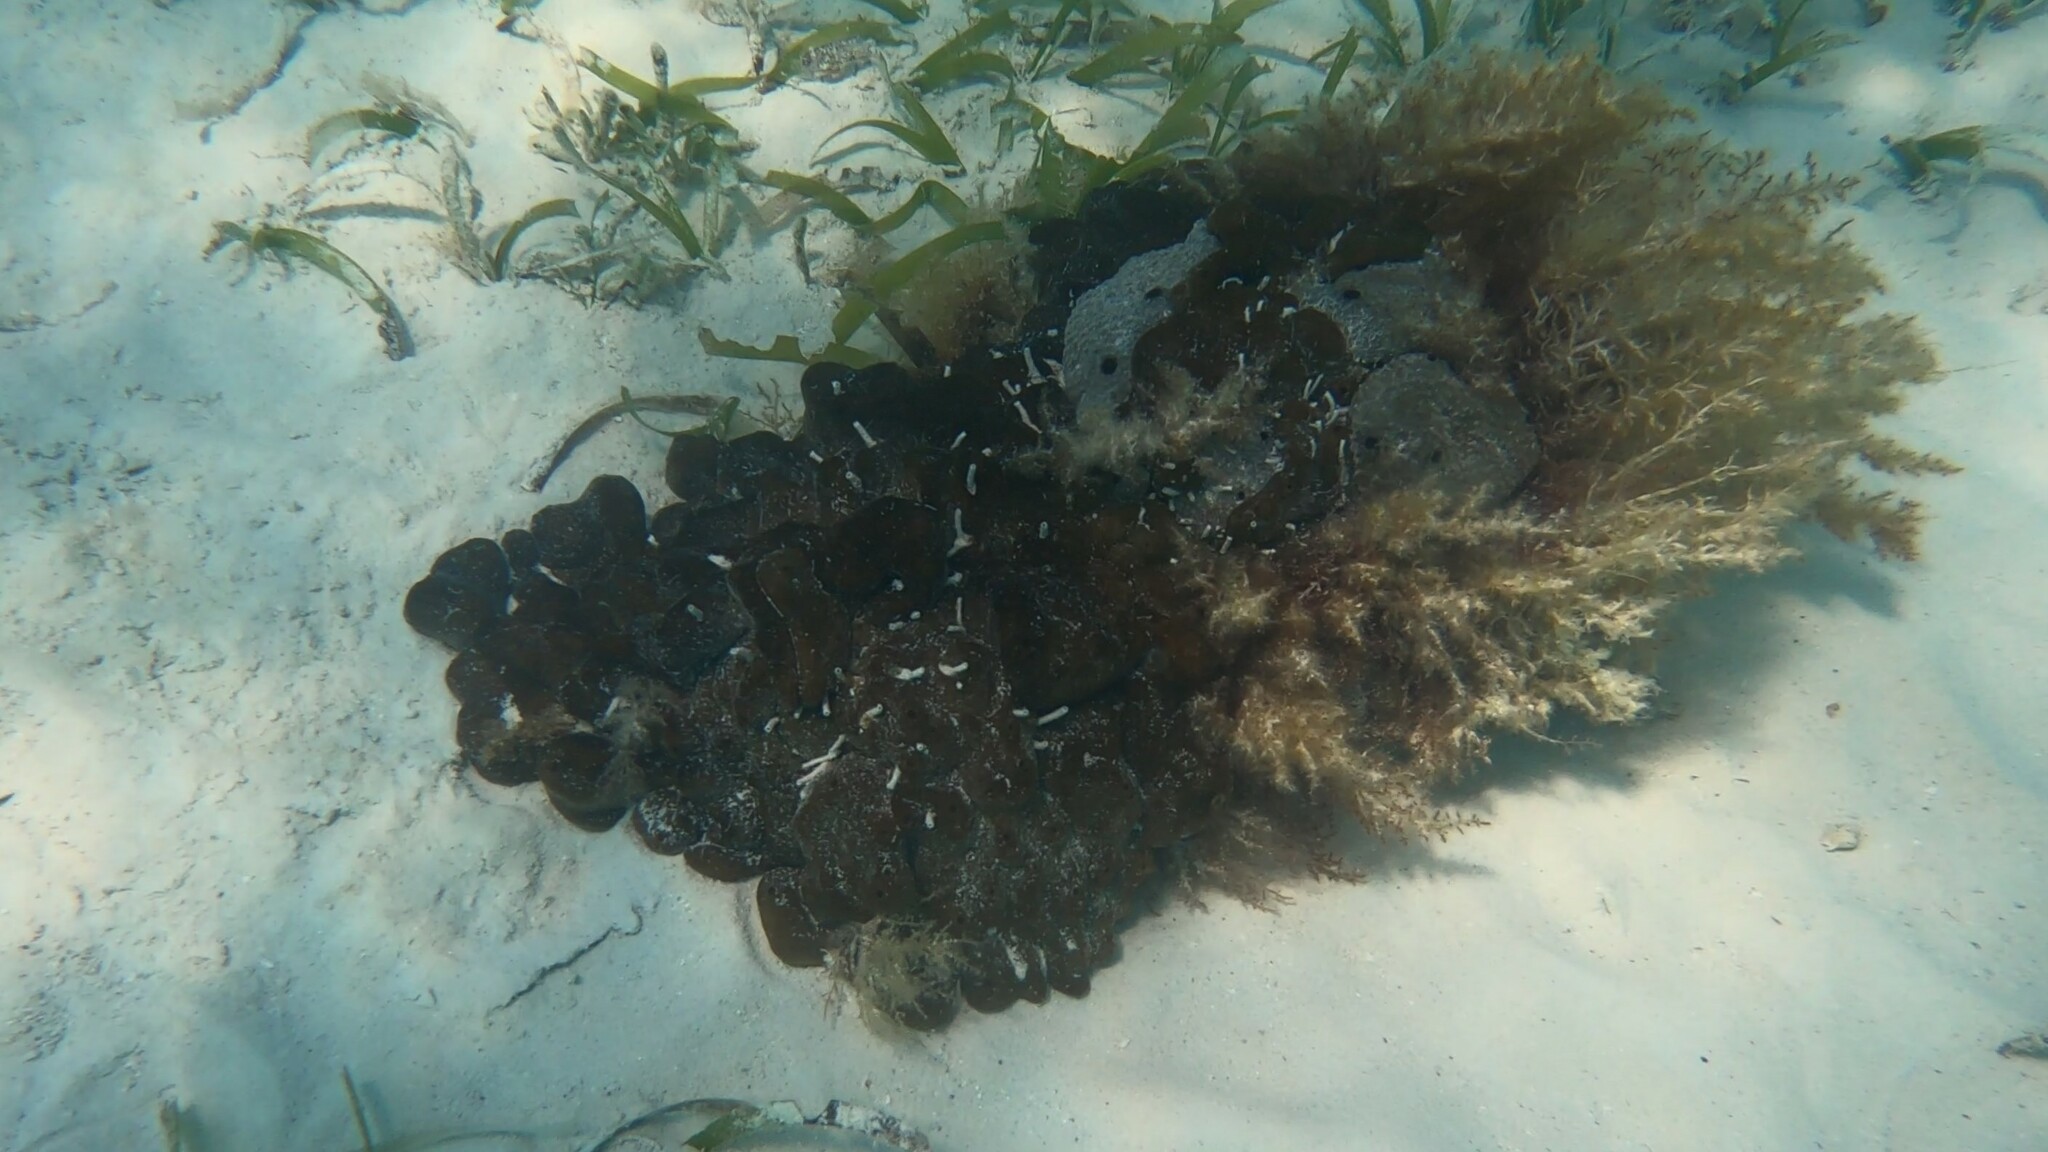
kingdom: Animalia
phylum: Porifera
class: Demospongiae
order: Chondrillida
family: Chondrillidae
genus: Chondrilla
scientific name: Chondrilla nucula
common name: Chicken liver sponge
